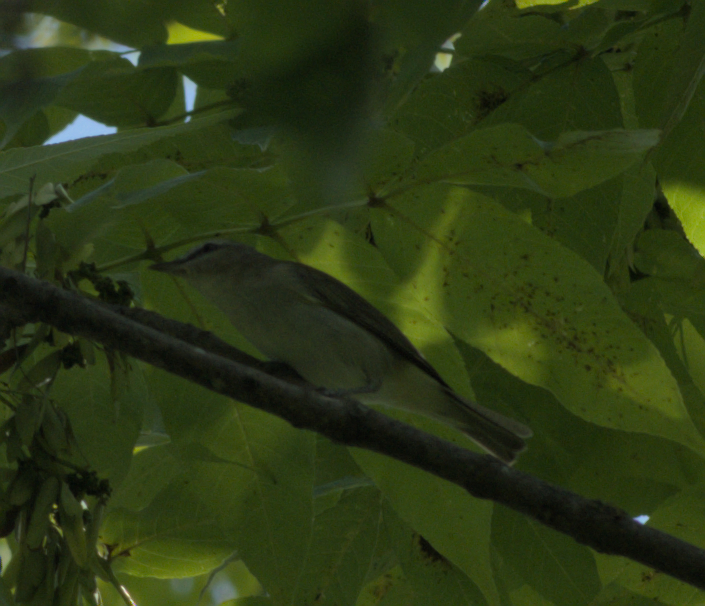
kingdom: Animalia
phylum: Chordata
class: Aves
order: Passeriformes
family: Vireonidae
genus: Vireo
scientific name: Vireo olivaceus
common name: Red-eyed vireo
